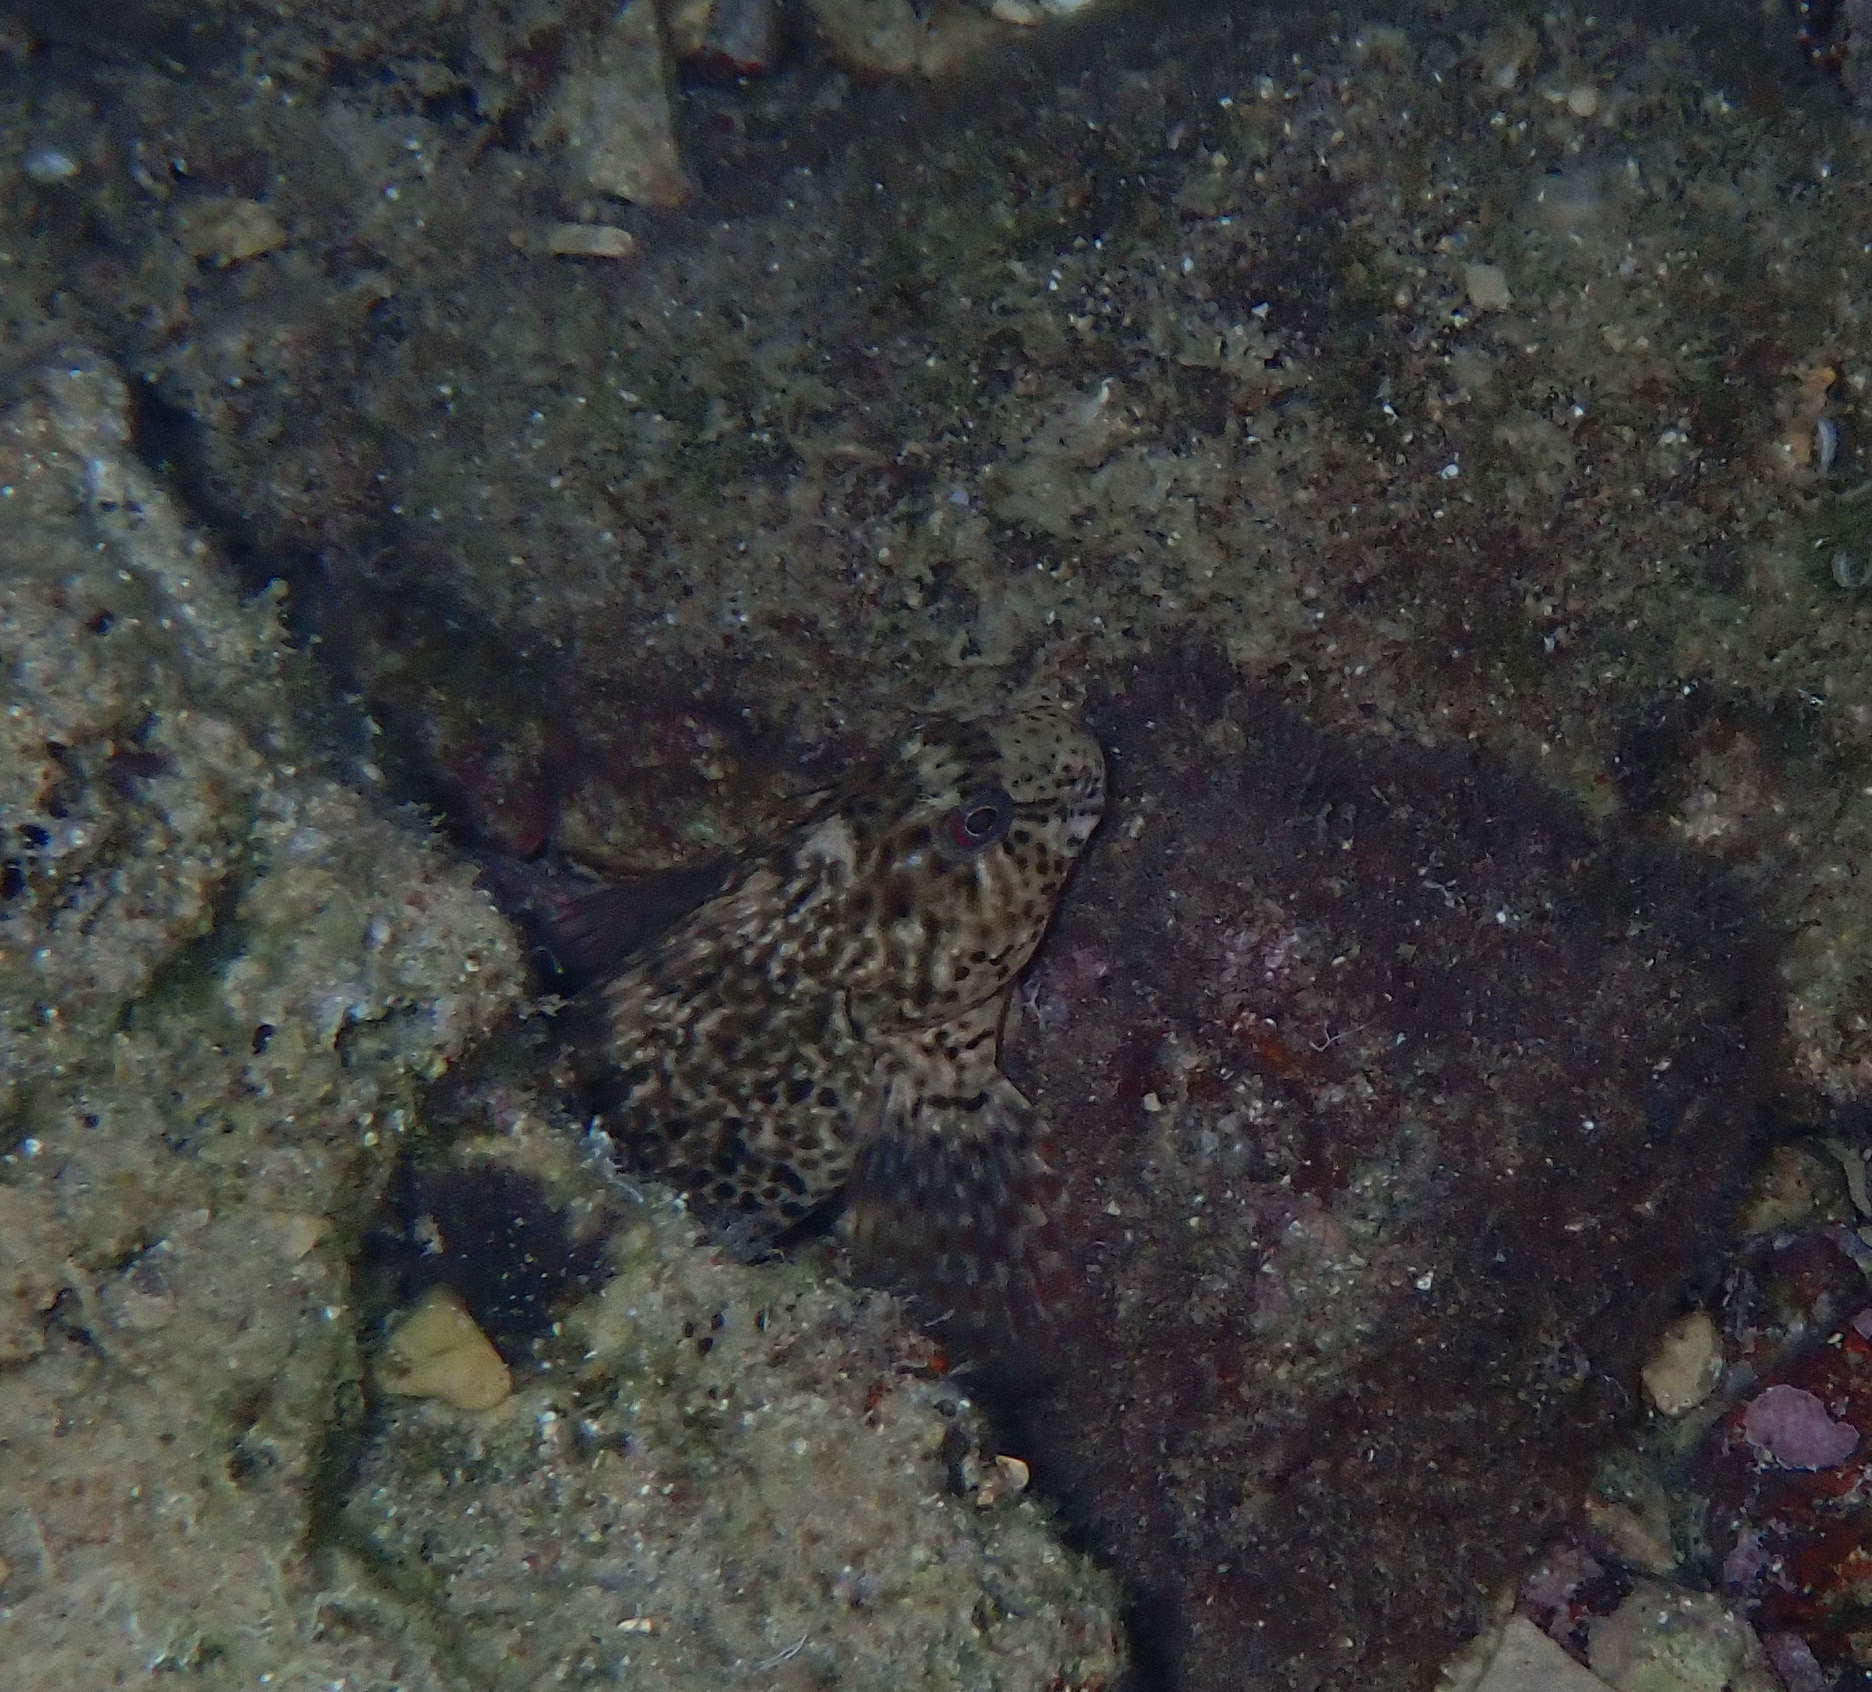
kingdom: Animalia
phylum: Chordata
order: Perciformes
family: Blenniidae
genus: Parablennius
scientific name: Parablennius sanguinolentus
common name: Black sea blenny
